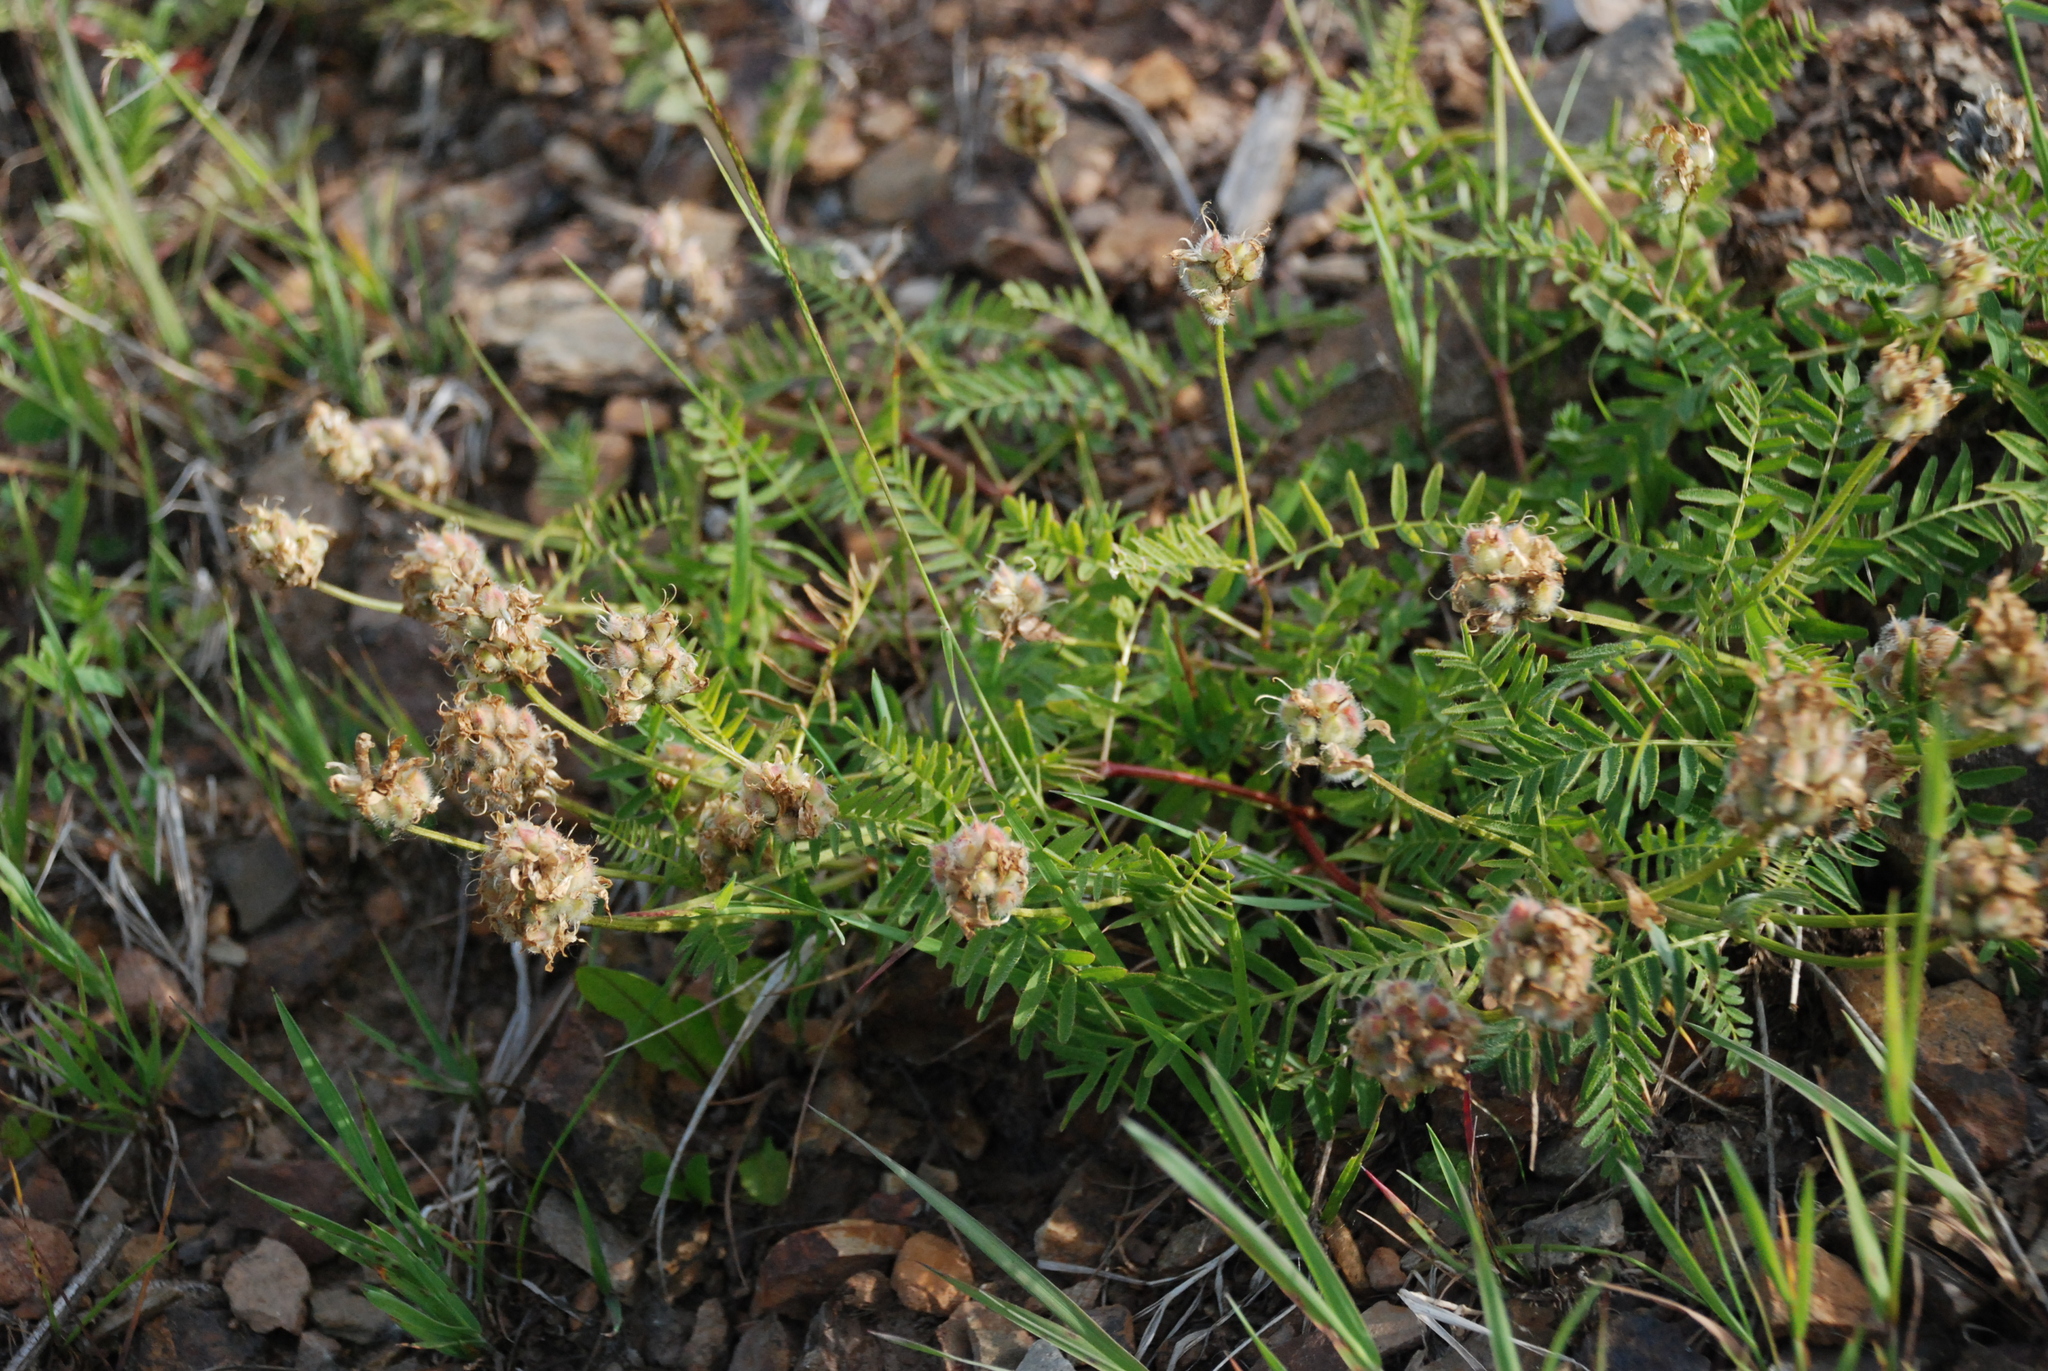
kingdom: Plantae
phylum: Tracheophyta
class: Magnoliopsida
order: Fabales
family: Fabaceae
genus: Astragalus
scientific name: Astragalus danicus
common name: Purple milk-vetch
